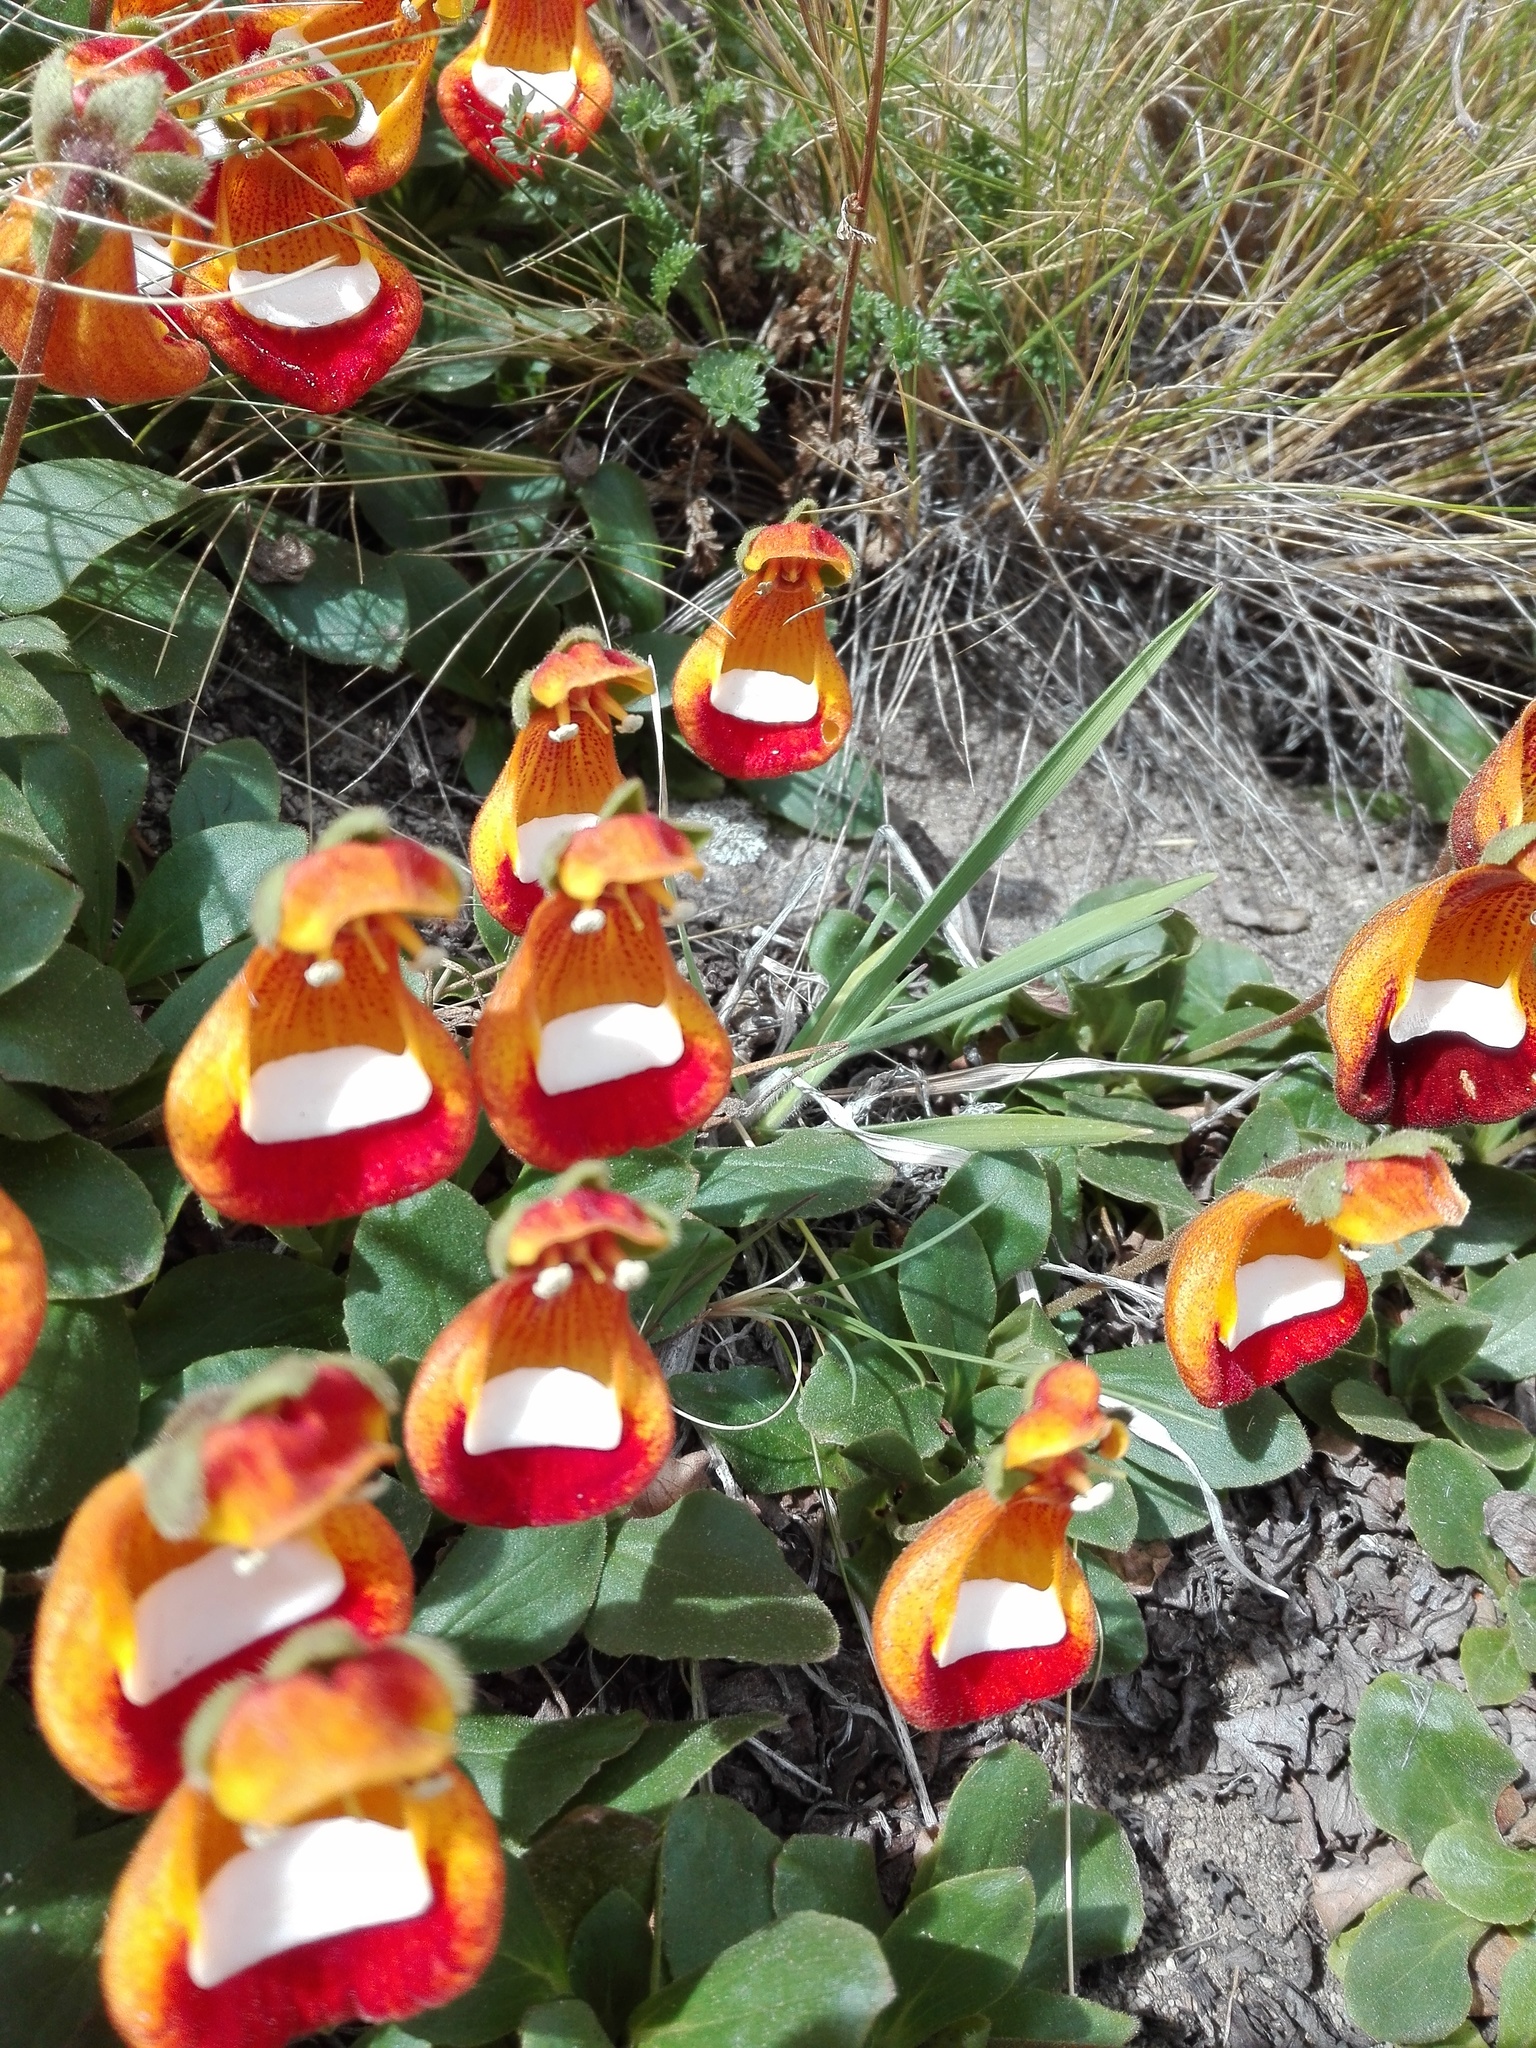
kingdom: Plantae
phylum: Tracheophyta
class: Magnoliopsida
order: Lamiales
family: Calceolariaceae
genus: Calceolaria
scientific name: Calceolaria uniflora
